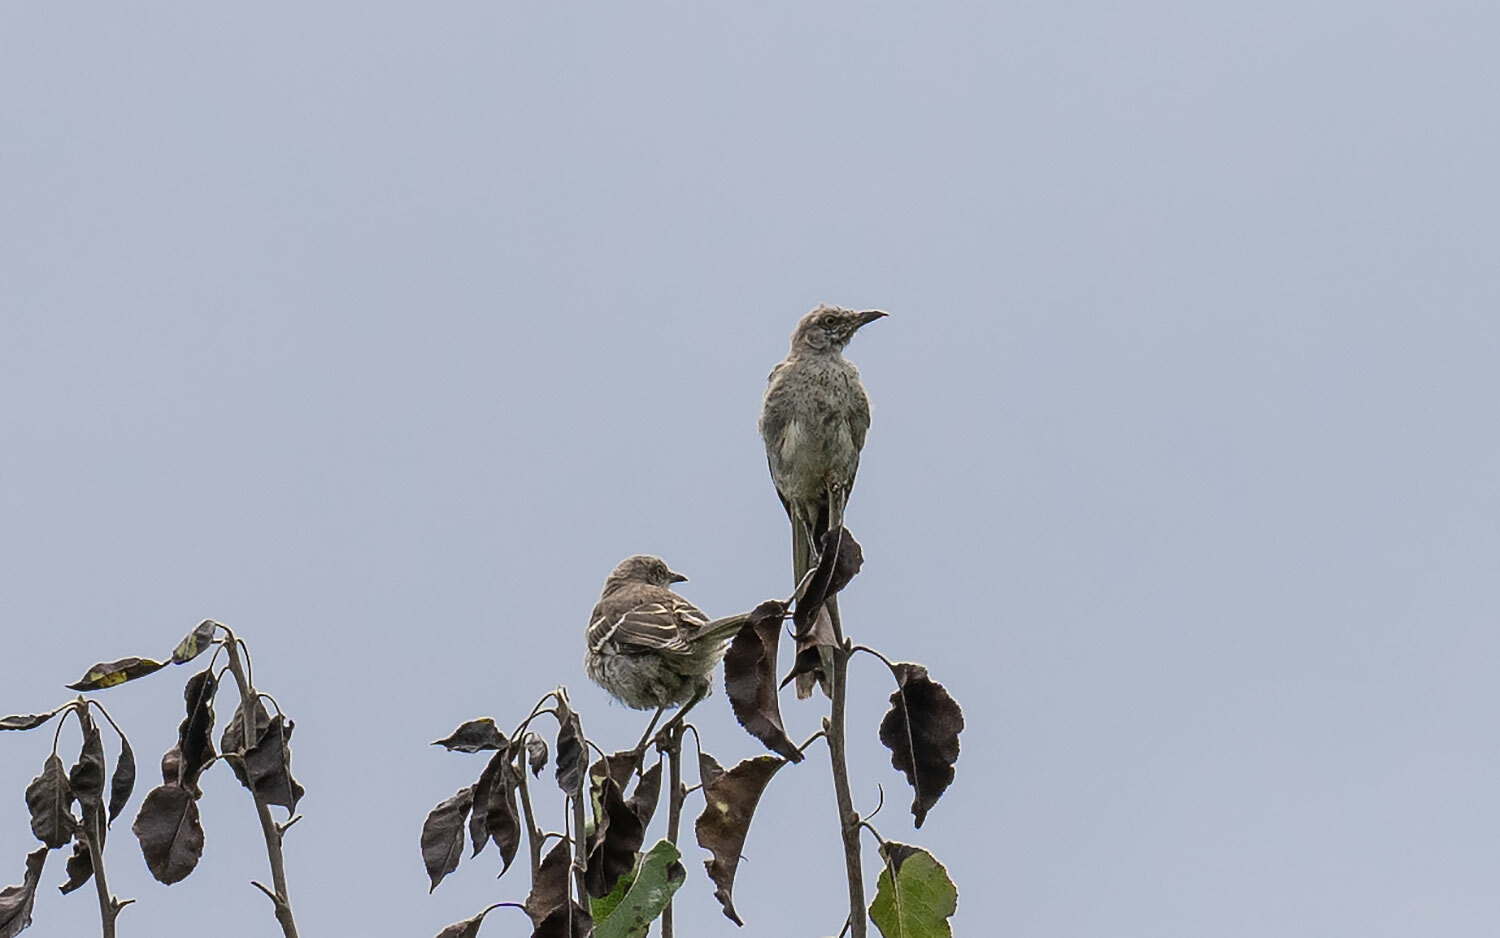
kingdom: Animalia
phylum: Chordata
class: Aves
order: Passeriformes
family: Mimidae
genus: Mimus
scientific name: Mimus polyglottos
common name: Northern mockingbird
